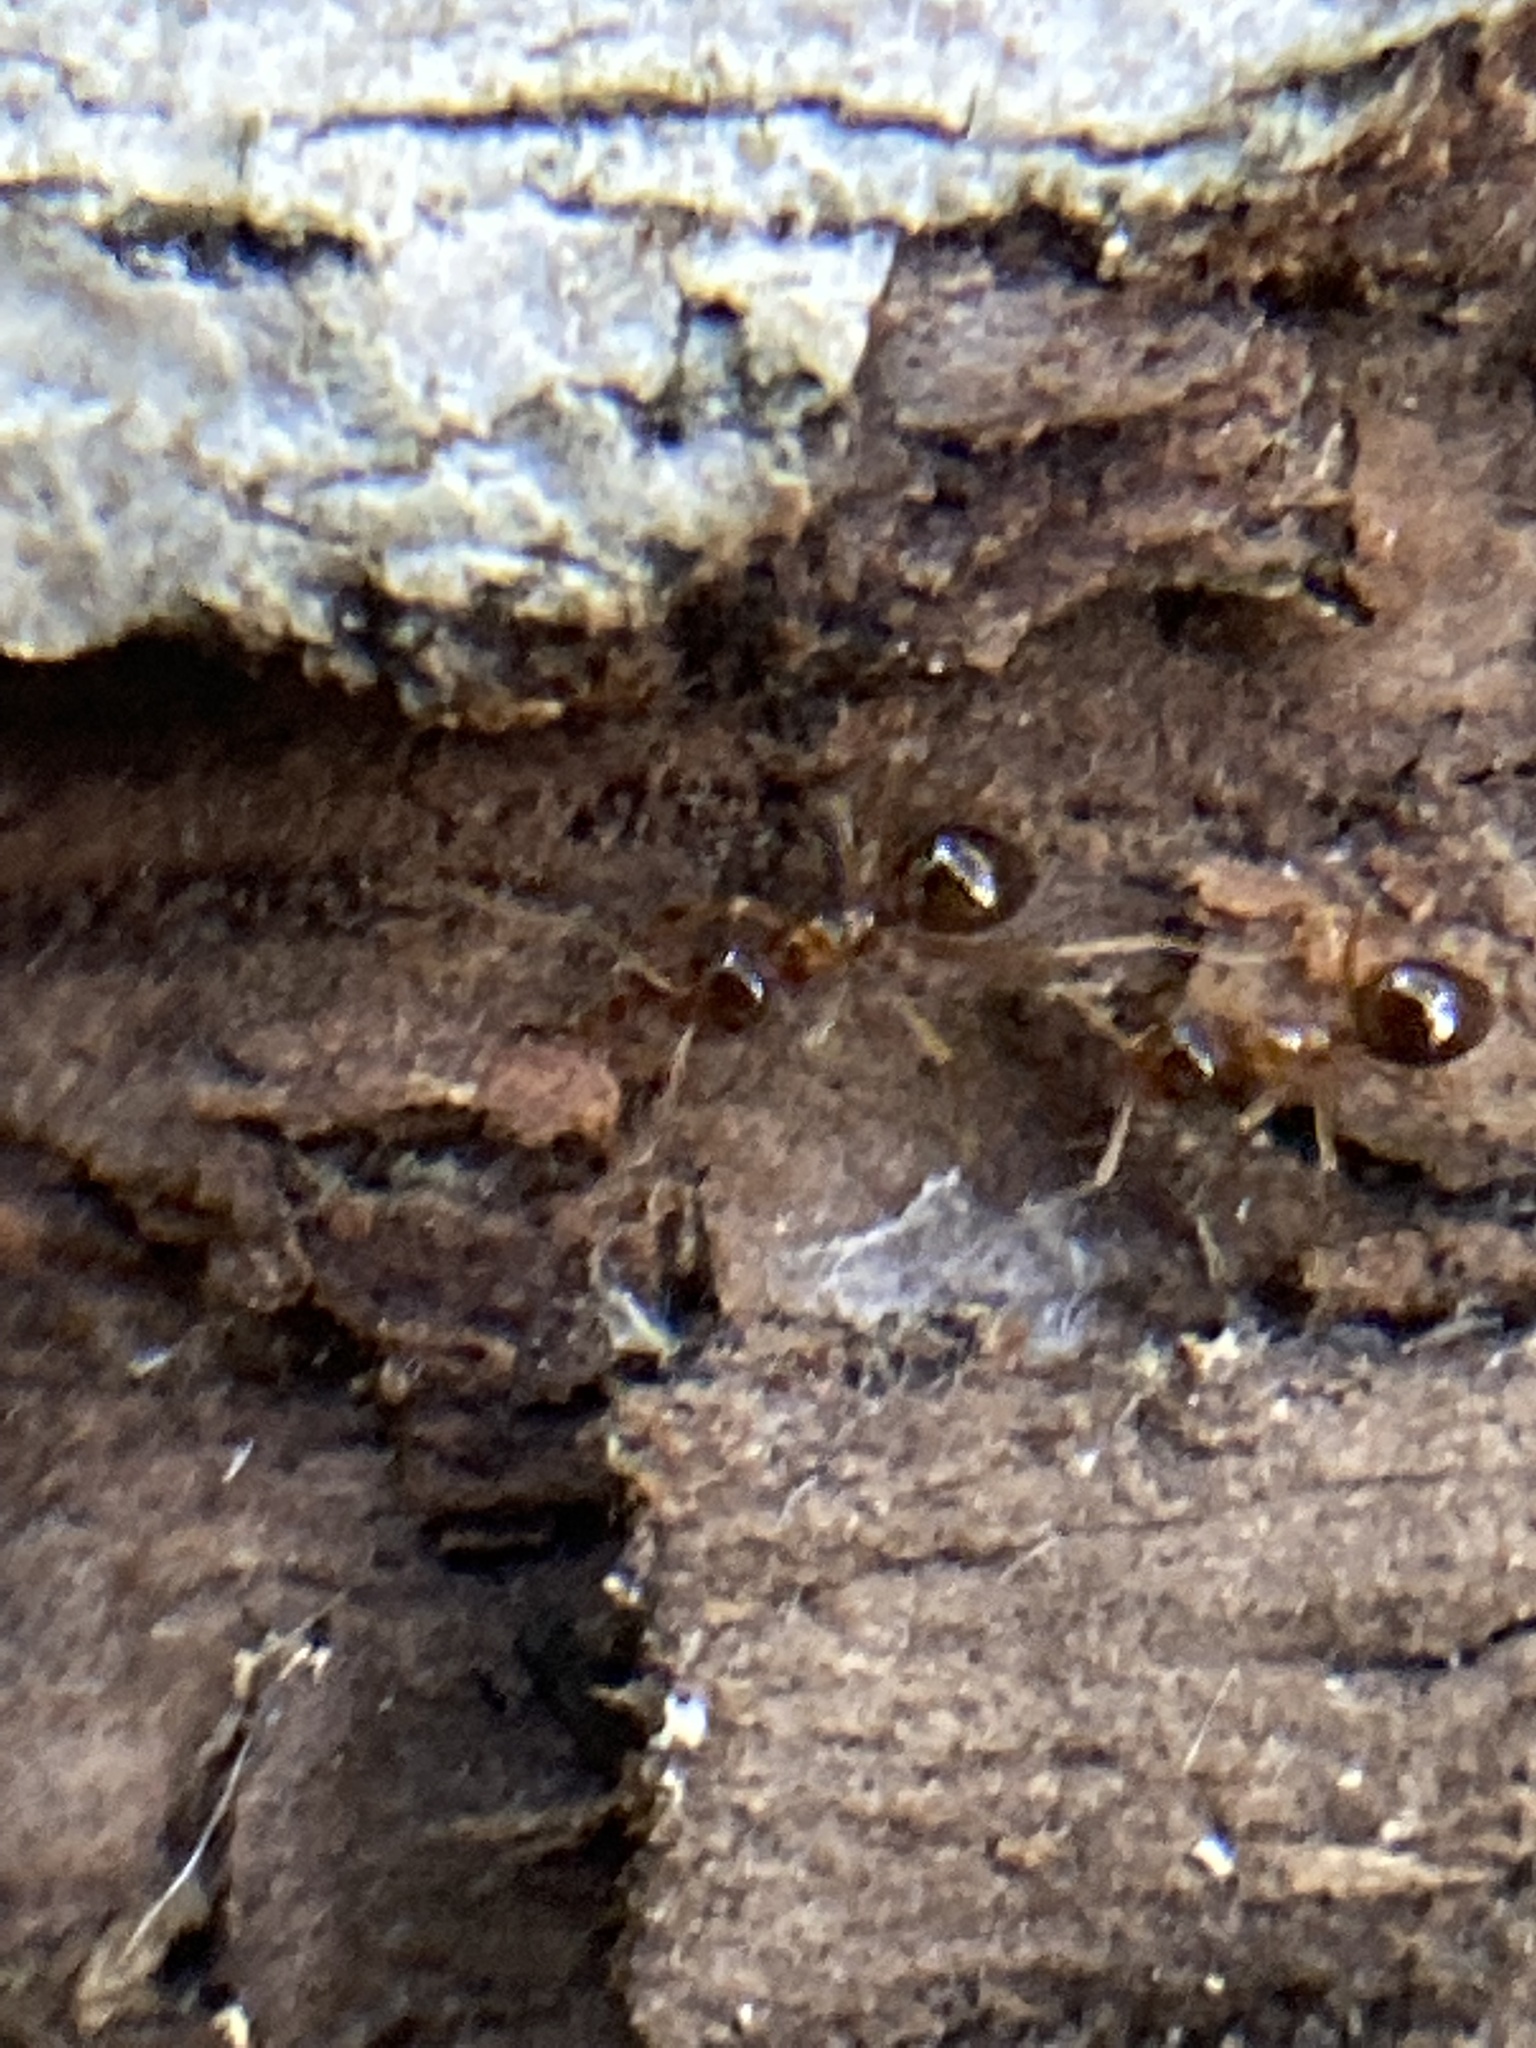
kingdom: Animalia
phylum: Arthropoda
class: Insecta
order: Hymenoptera
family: Formicidae
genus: Prenolepis
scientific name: Prenolepis imparis
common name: Small honey ant
